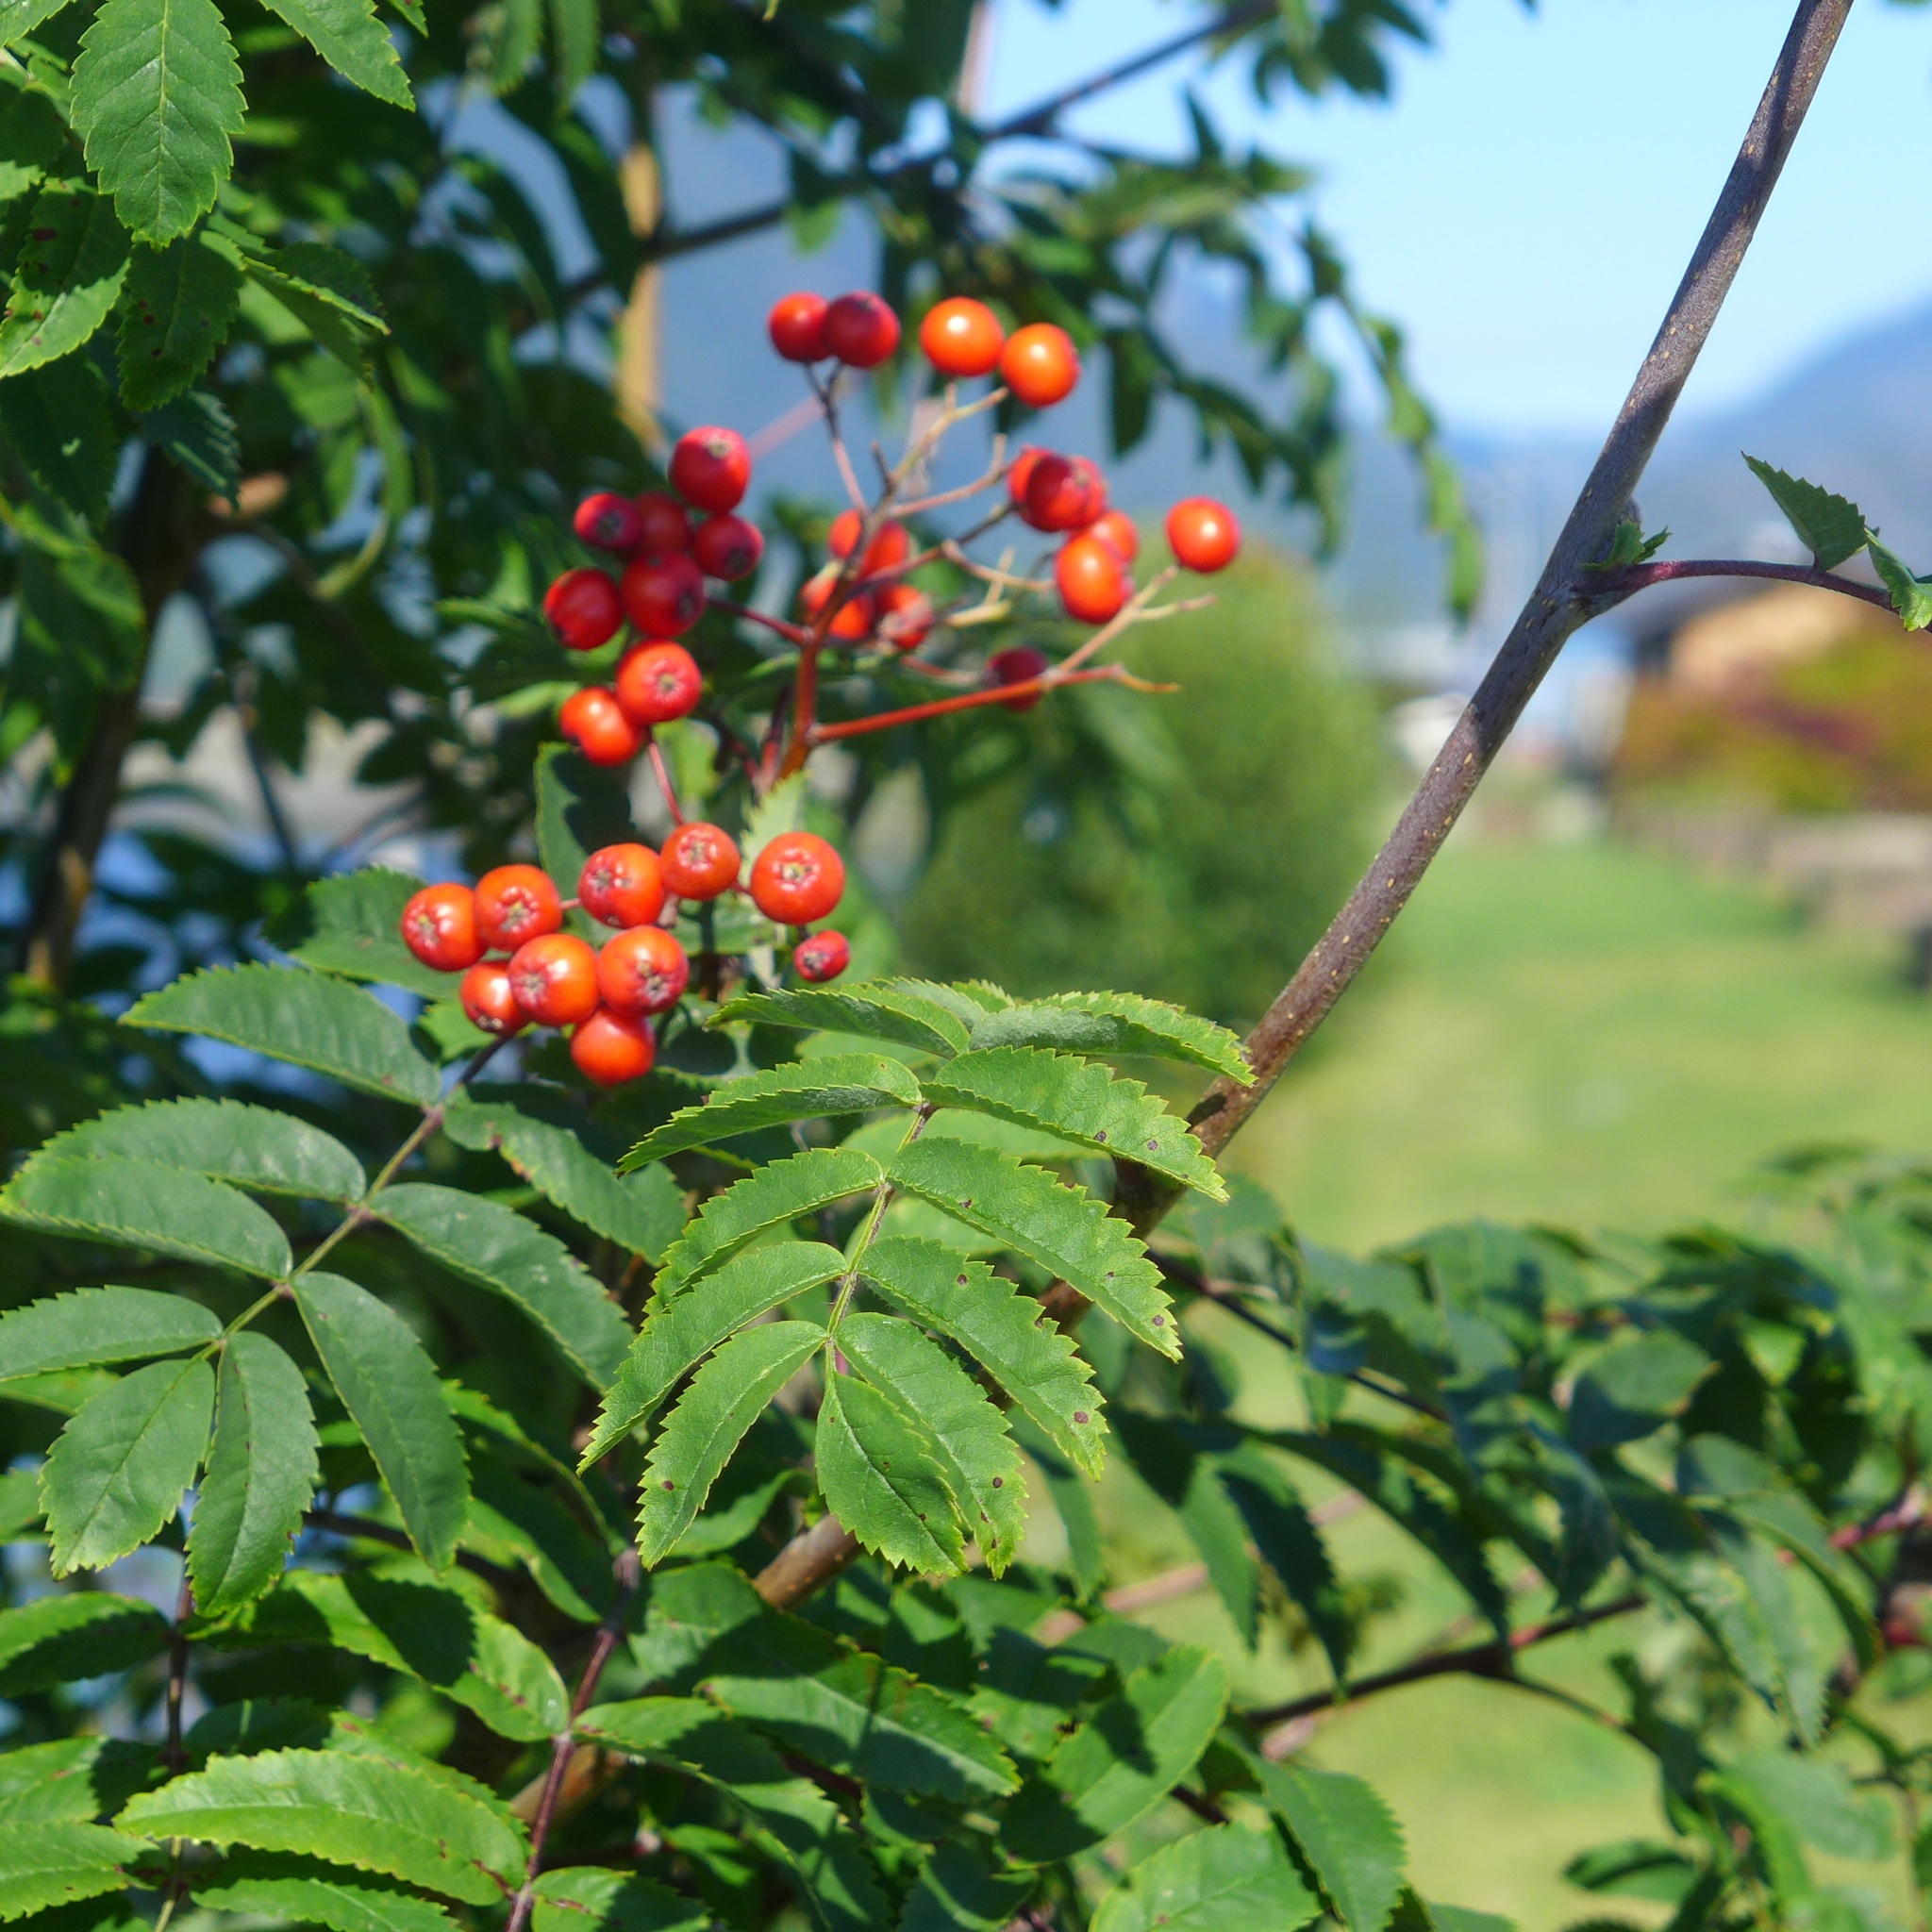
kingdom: Plantae
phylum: Tracheophyta
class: Magnoliopsida
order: Rosales
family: Rosaceae
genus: Sorbus
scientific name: Sorbus aucuparia
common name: Rowan
